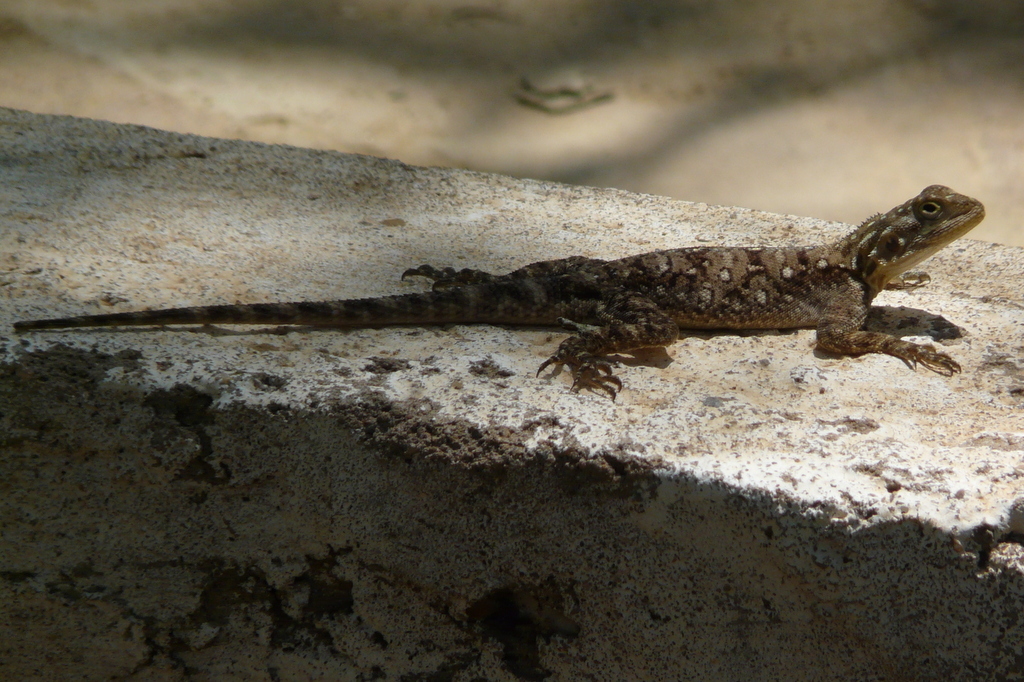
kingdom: Animalia
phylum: Chordata
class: Squamata
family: Agamidae
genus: Agama
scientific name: Agama lionotus
